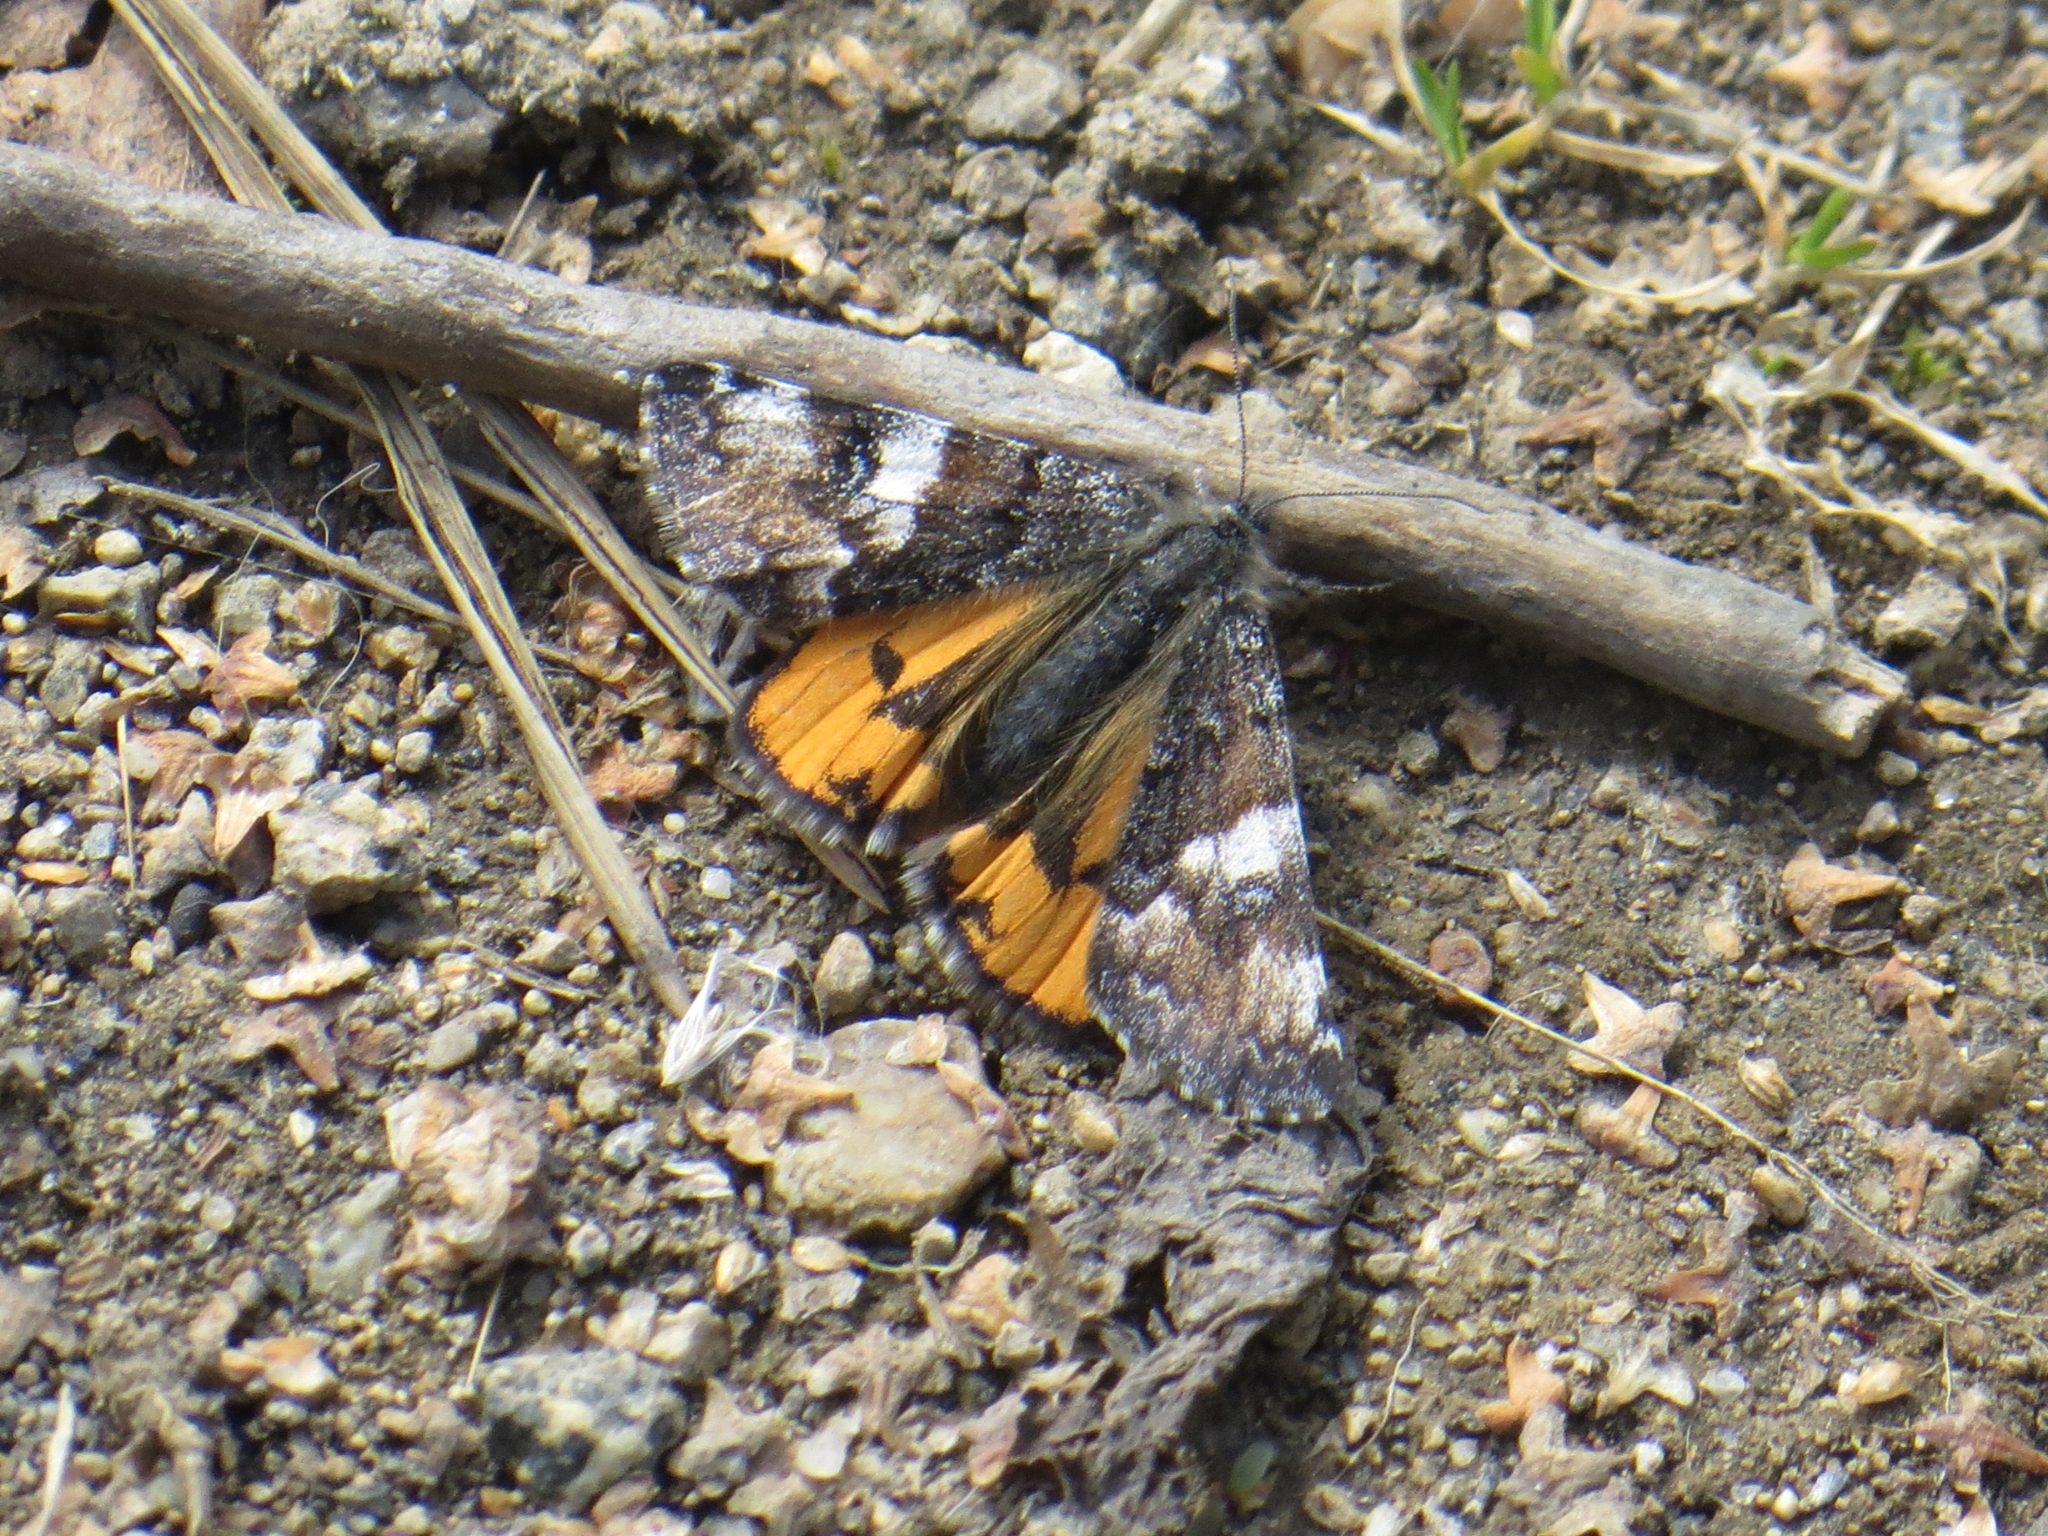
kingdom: Animalia
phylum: Arthropoda
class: Insecta
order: Lepidoptera
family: Geometridae
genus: Archiearis
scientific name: Archiearis parthenias
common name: Orange underwing
